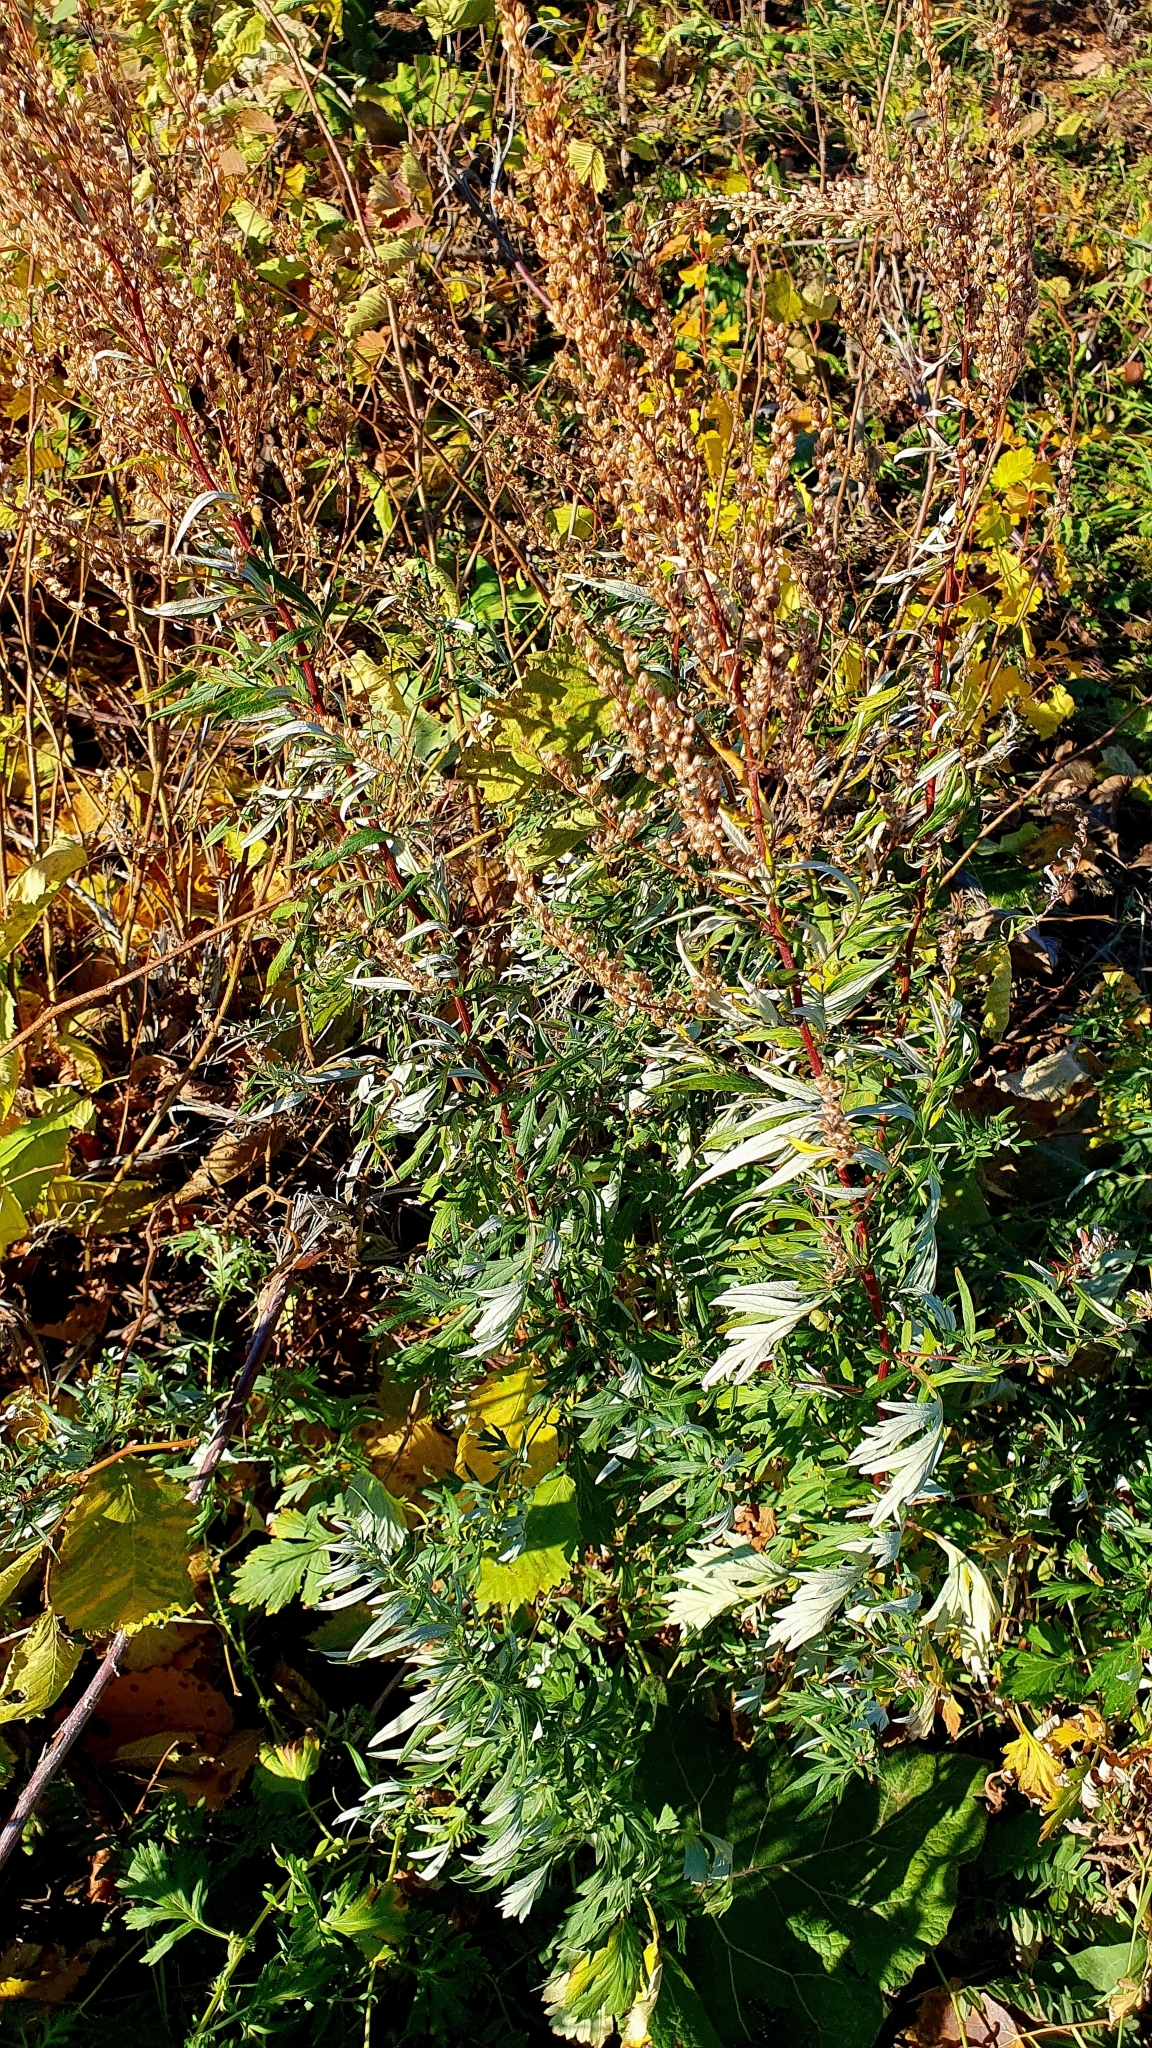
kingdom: Plantae
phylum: Tracheophyta
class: Magnoliopsida
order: Asterales
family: Asteraceae
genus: Artemisia
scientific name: Artemisia vulgaris
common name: Mugwort
